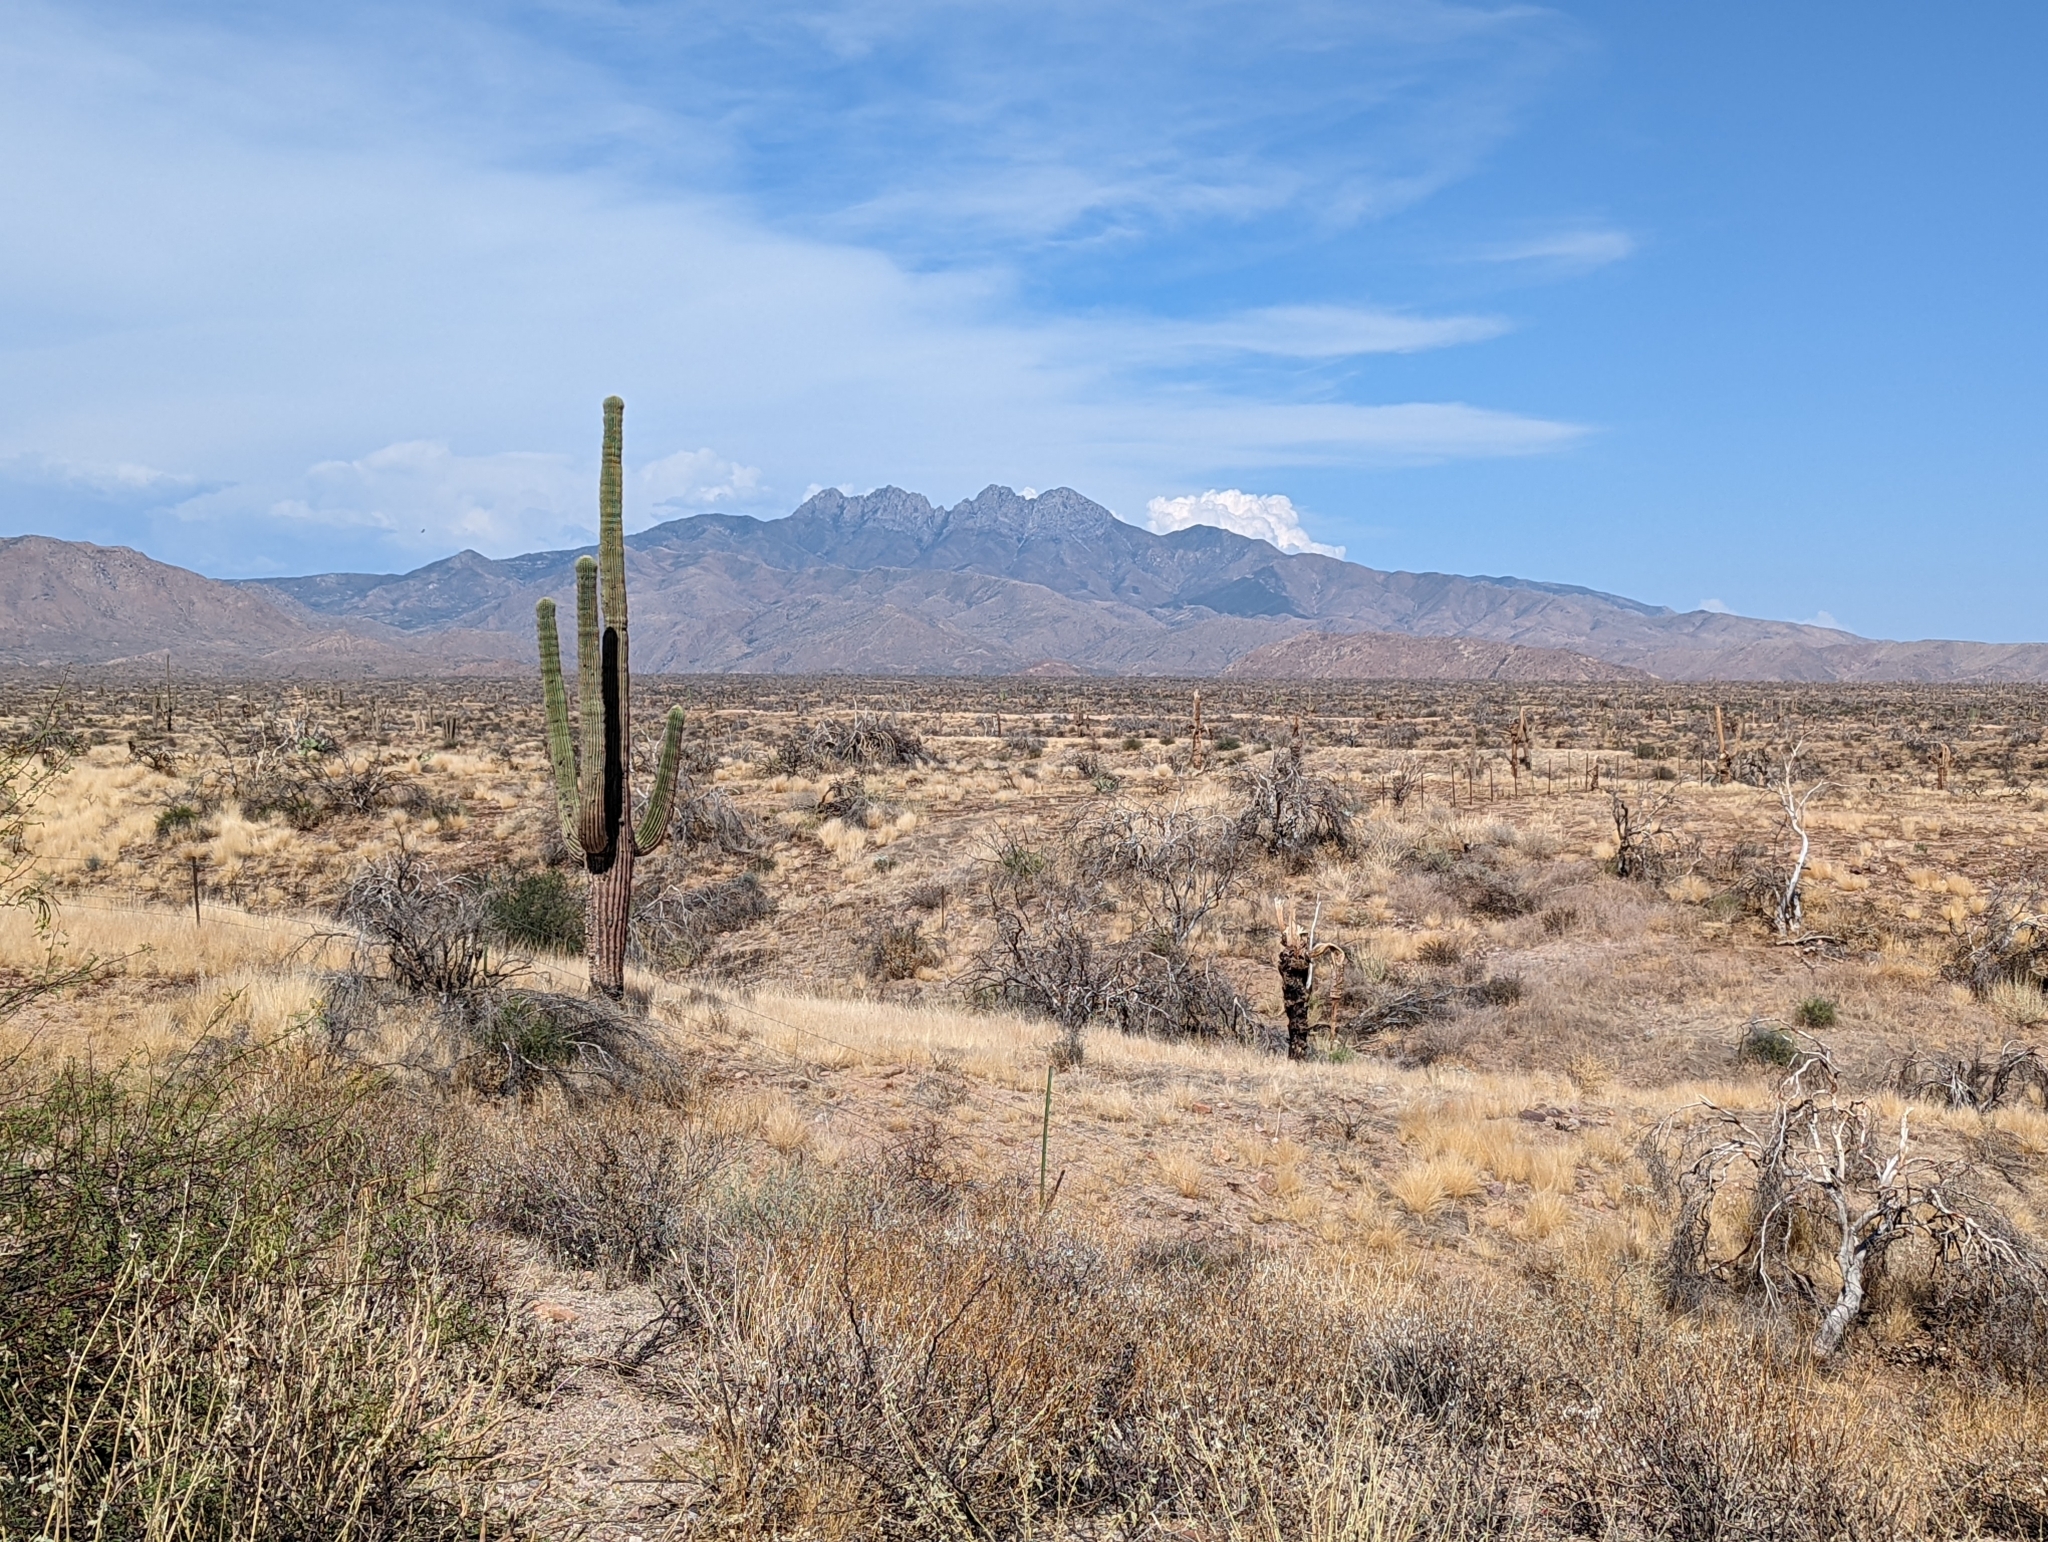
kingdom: Plantae
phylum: Tracheophyta
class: Magnoliopsida
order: Caryophyllales
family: Cactaceae
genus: Carnegiea
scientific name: Carnegiea gigantea
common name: Saguaro
